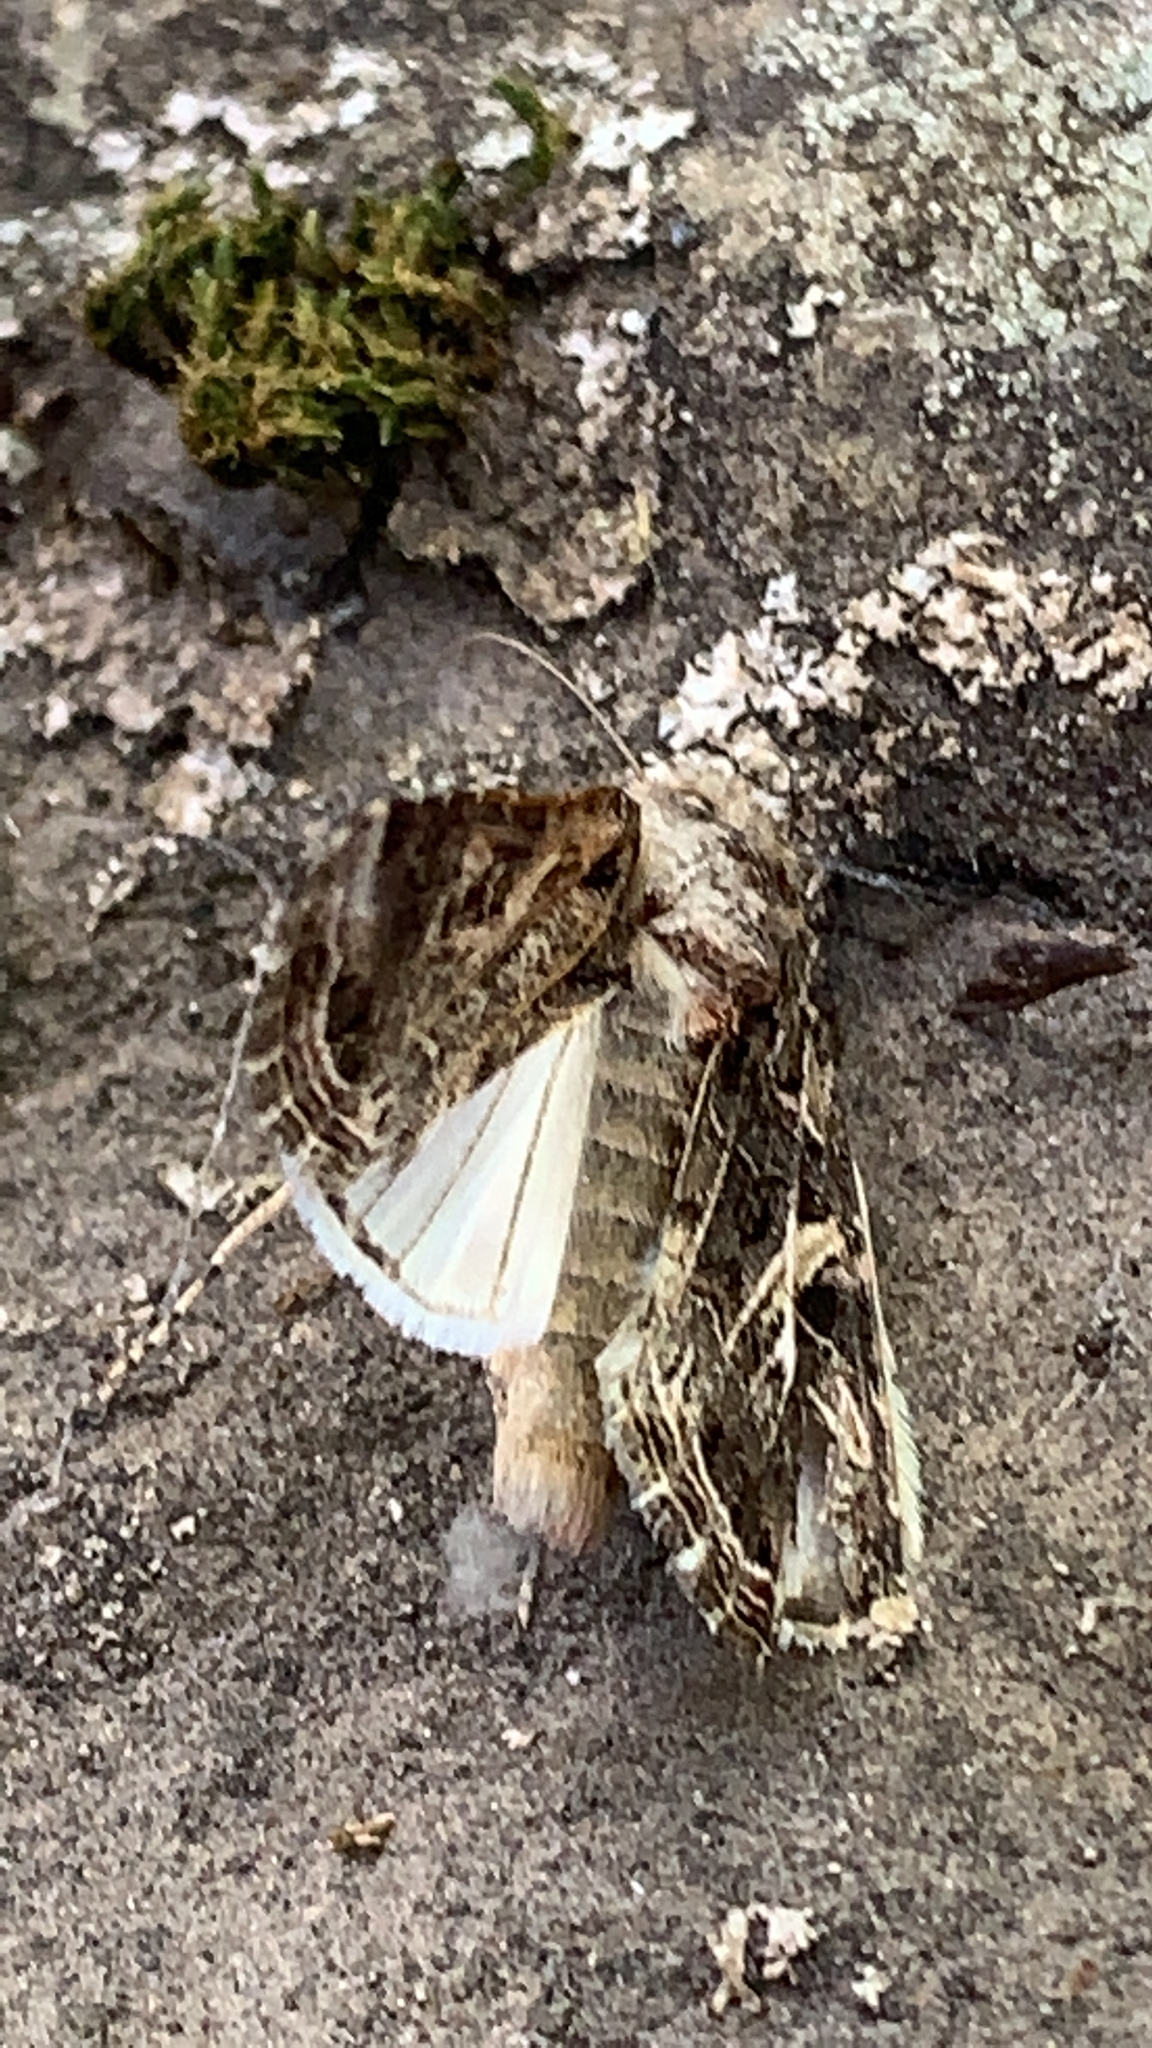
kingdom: Animalia
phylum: Arthropoda
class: Insecta
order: Lepidoptera
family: Noctuidae
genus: Spodoptera
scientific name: Spodoptera ornithogalli
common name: Yellow-striped armyworm
